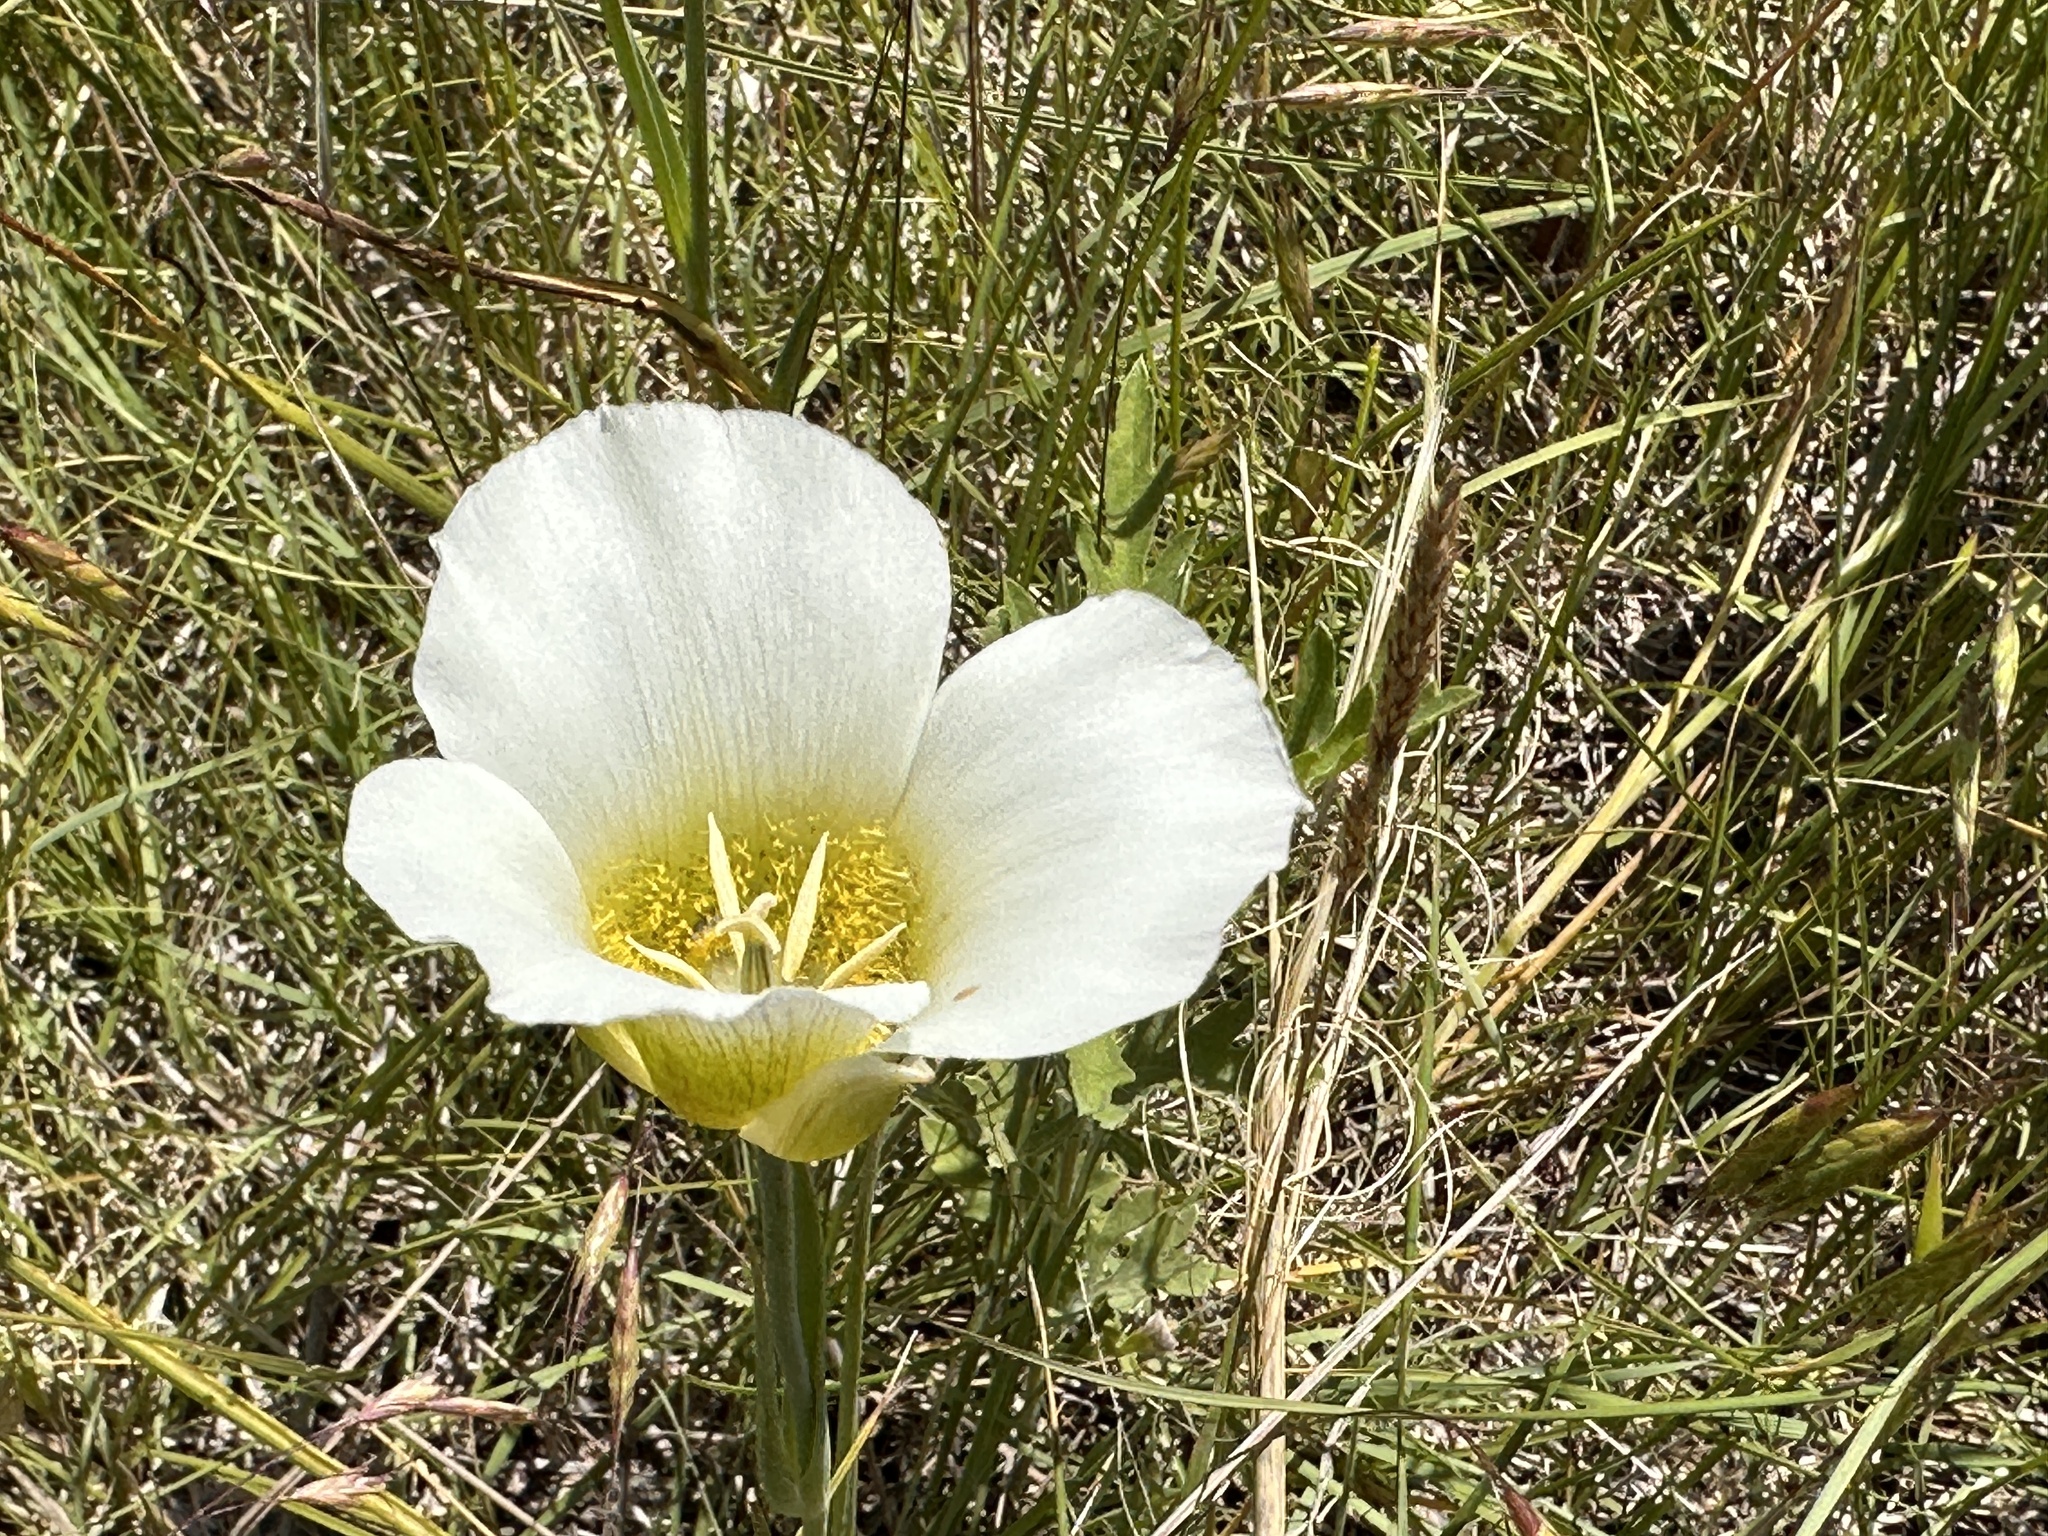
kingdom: Plantae
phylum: Tracheophyta
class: Liliopsida
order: Liliales
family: Liliaceae
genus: Calochortus
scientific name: Calochortus gunnisonii
